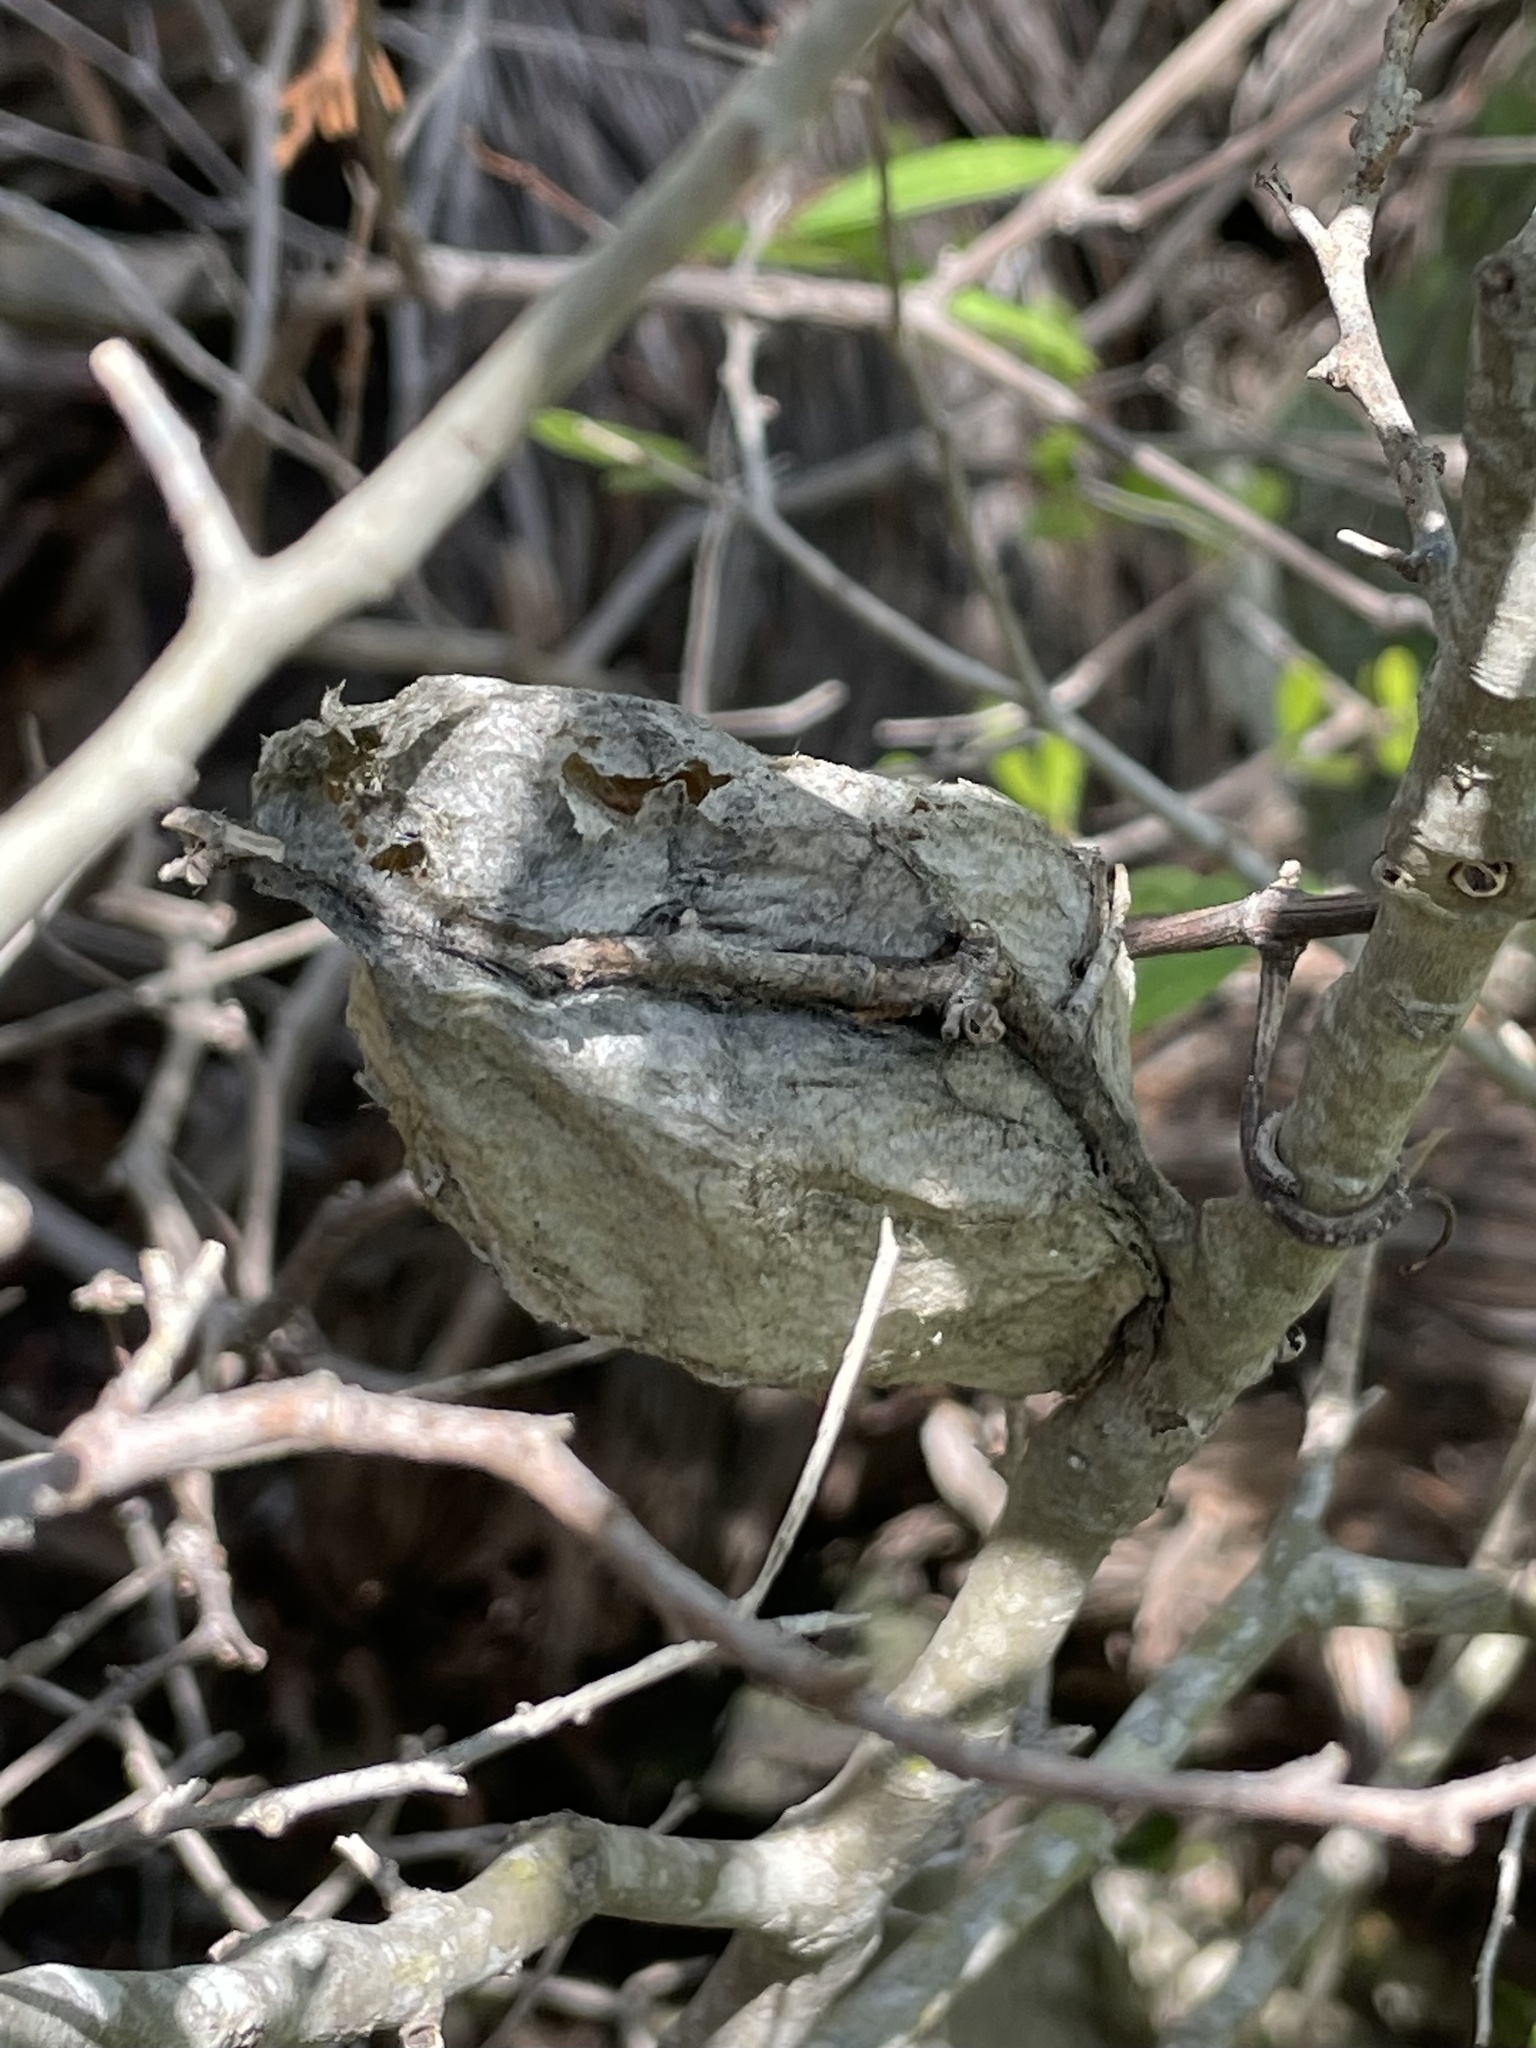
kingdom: Animalia
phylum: Arthropoda
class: Insecta
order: Lepidoptera
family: Saturniidae
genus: Hyalophora
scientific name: Hyalophora cecropia
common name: Cecropia silkmoth
